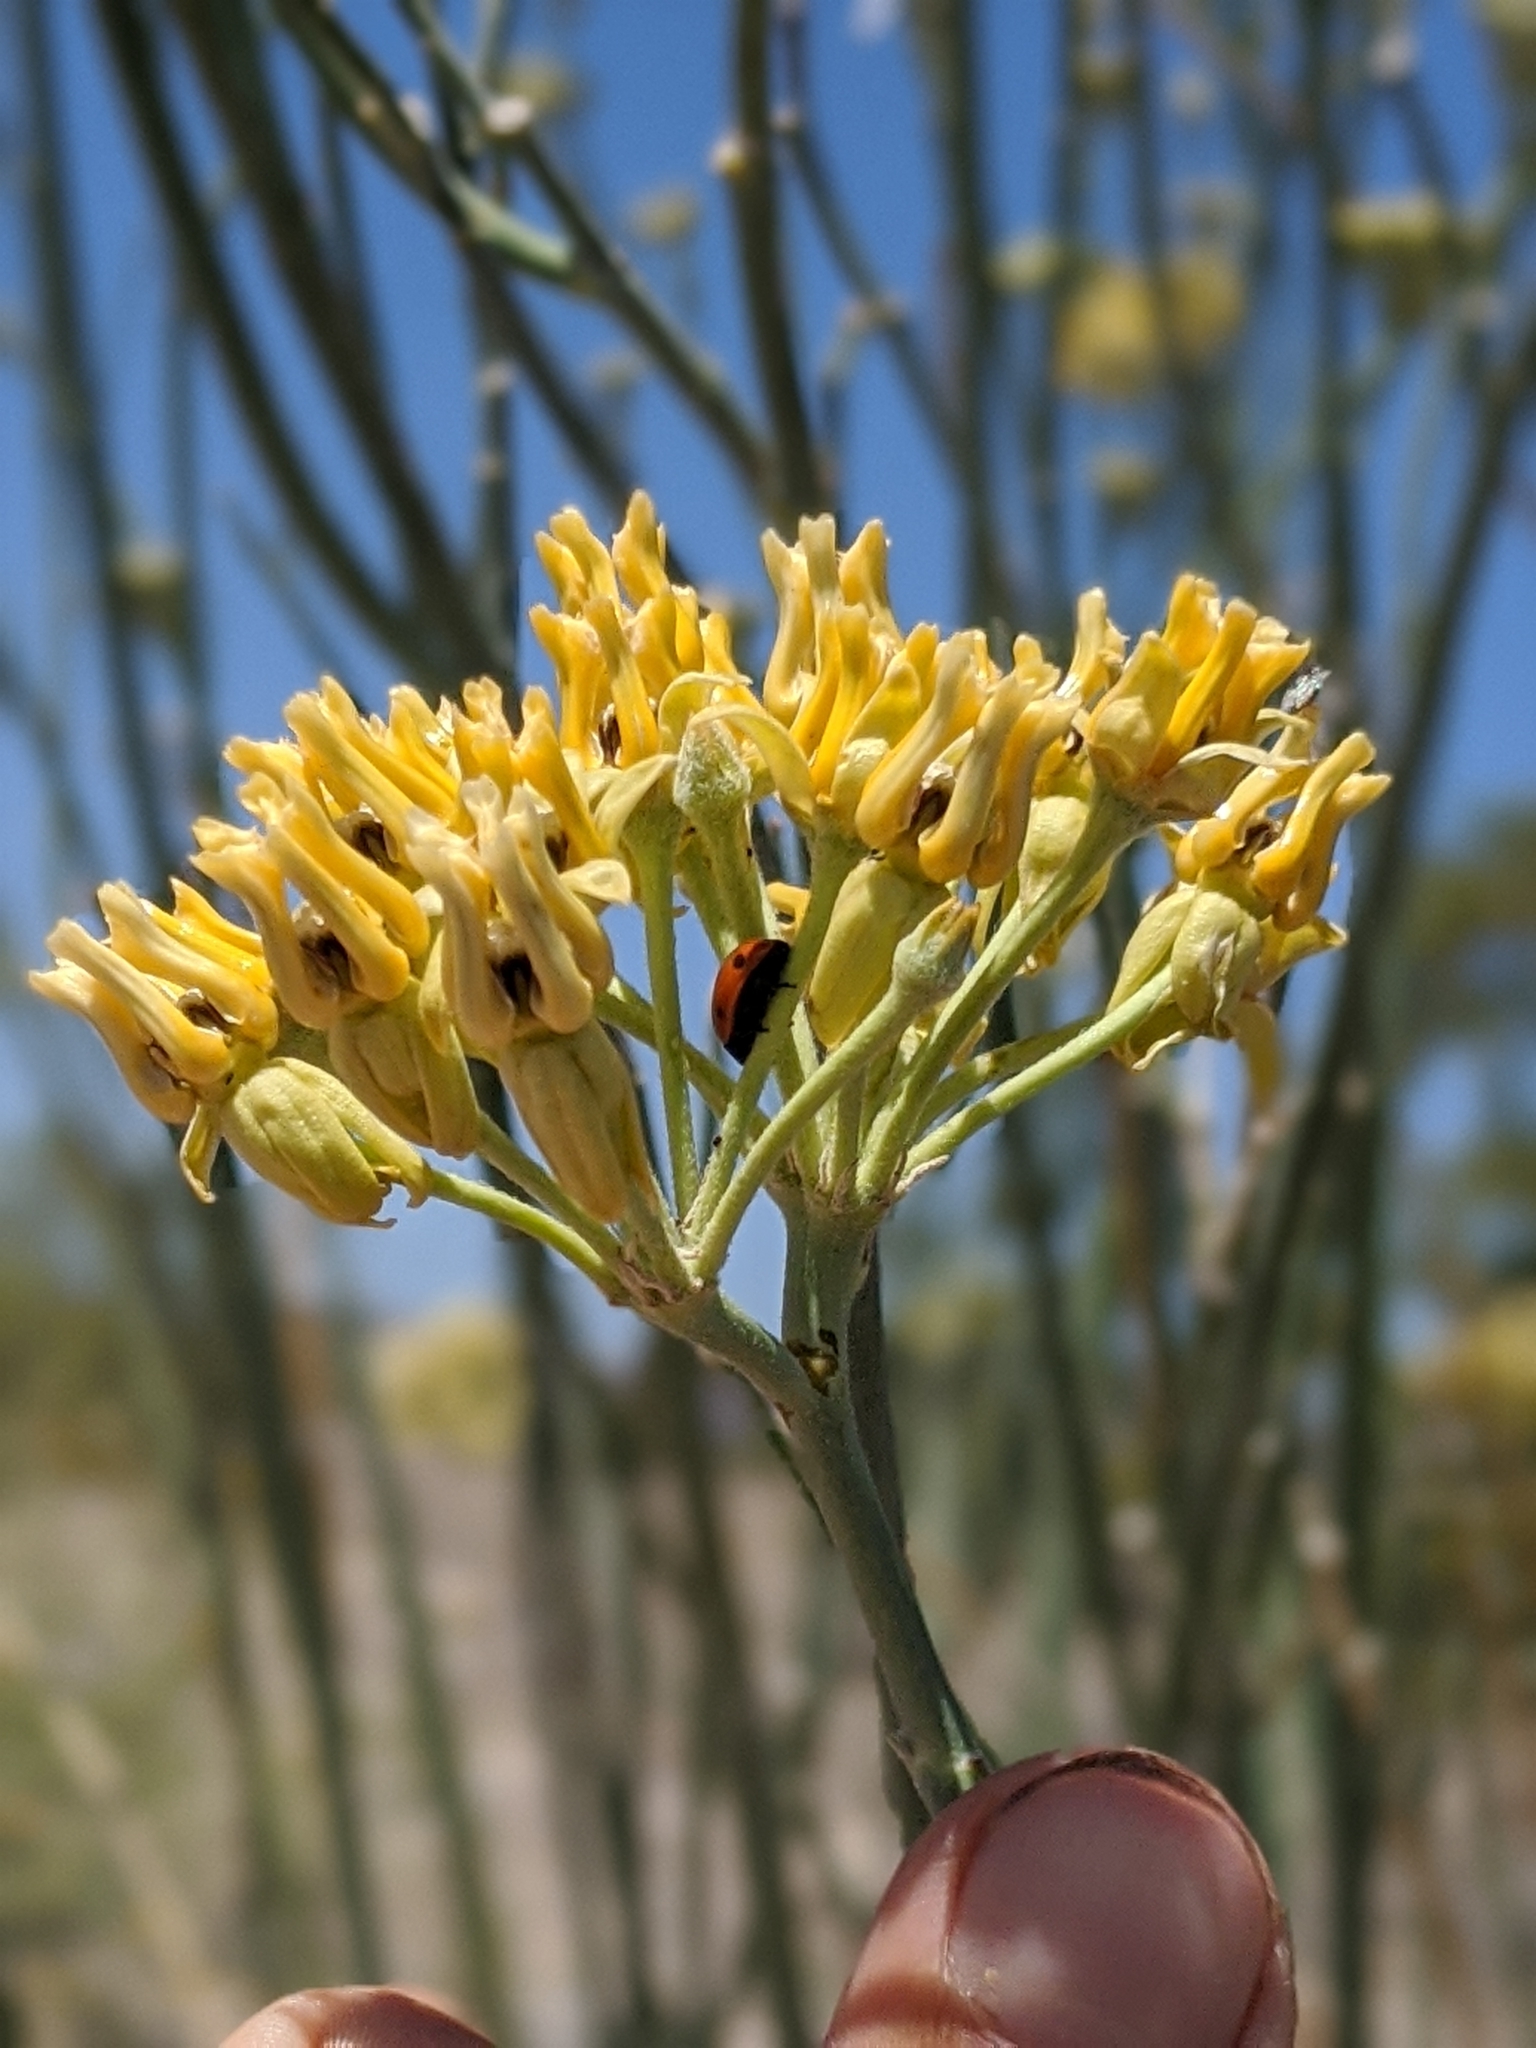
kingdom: Plantae
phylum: Tracheophyta
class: Magnoliopsida
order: Gentianales
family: Apocynaceae
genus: Asclepias
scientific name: Asclepias subulata
